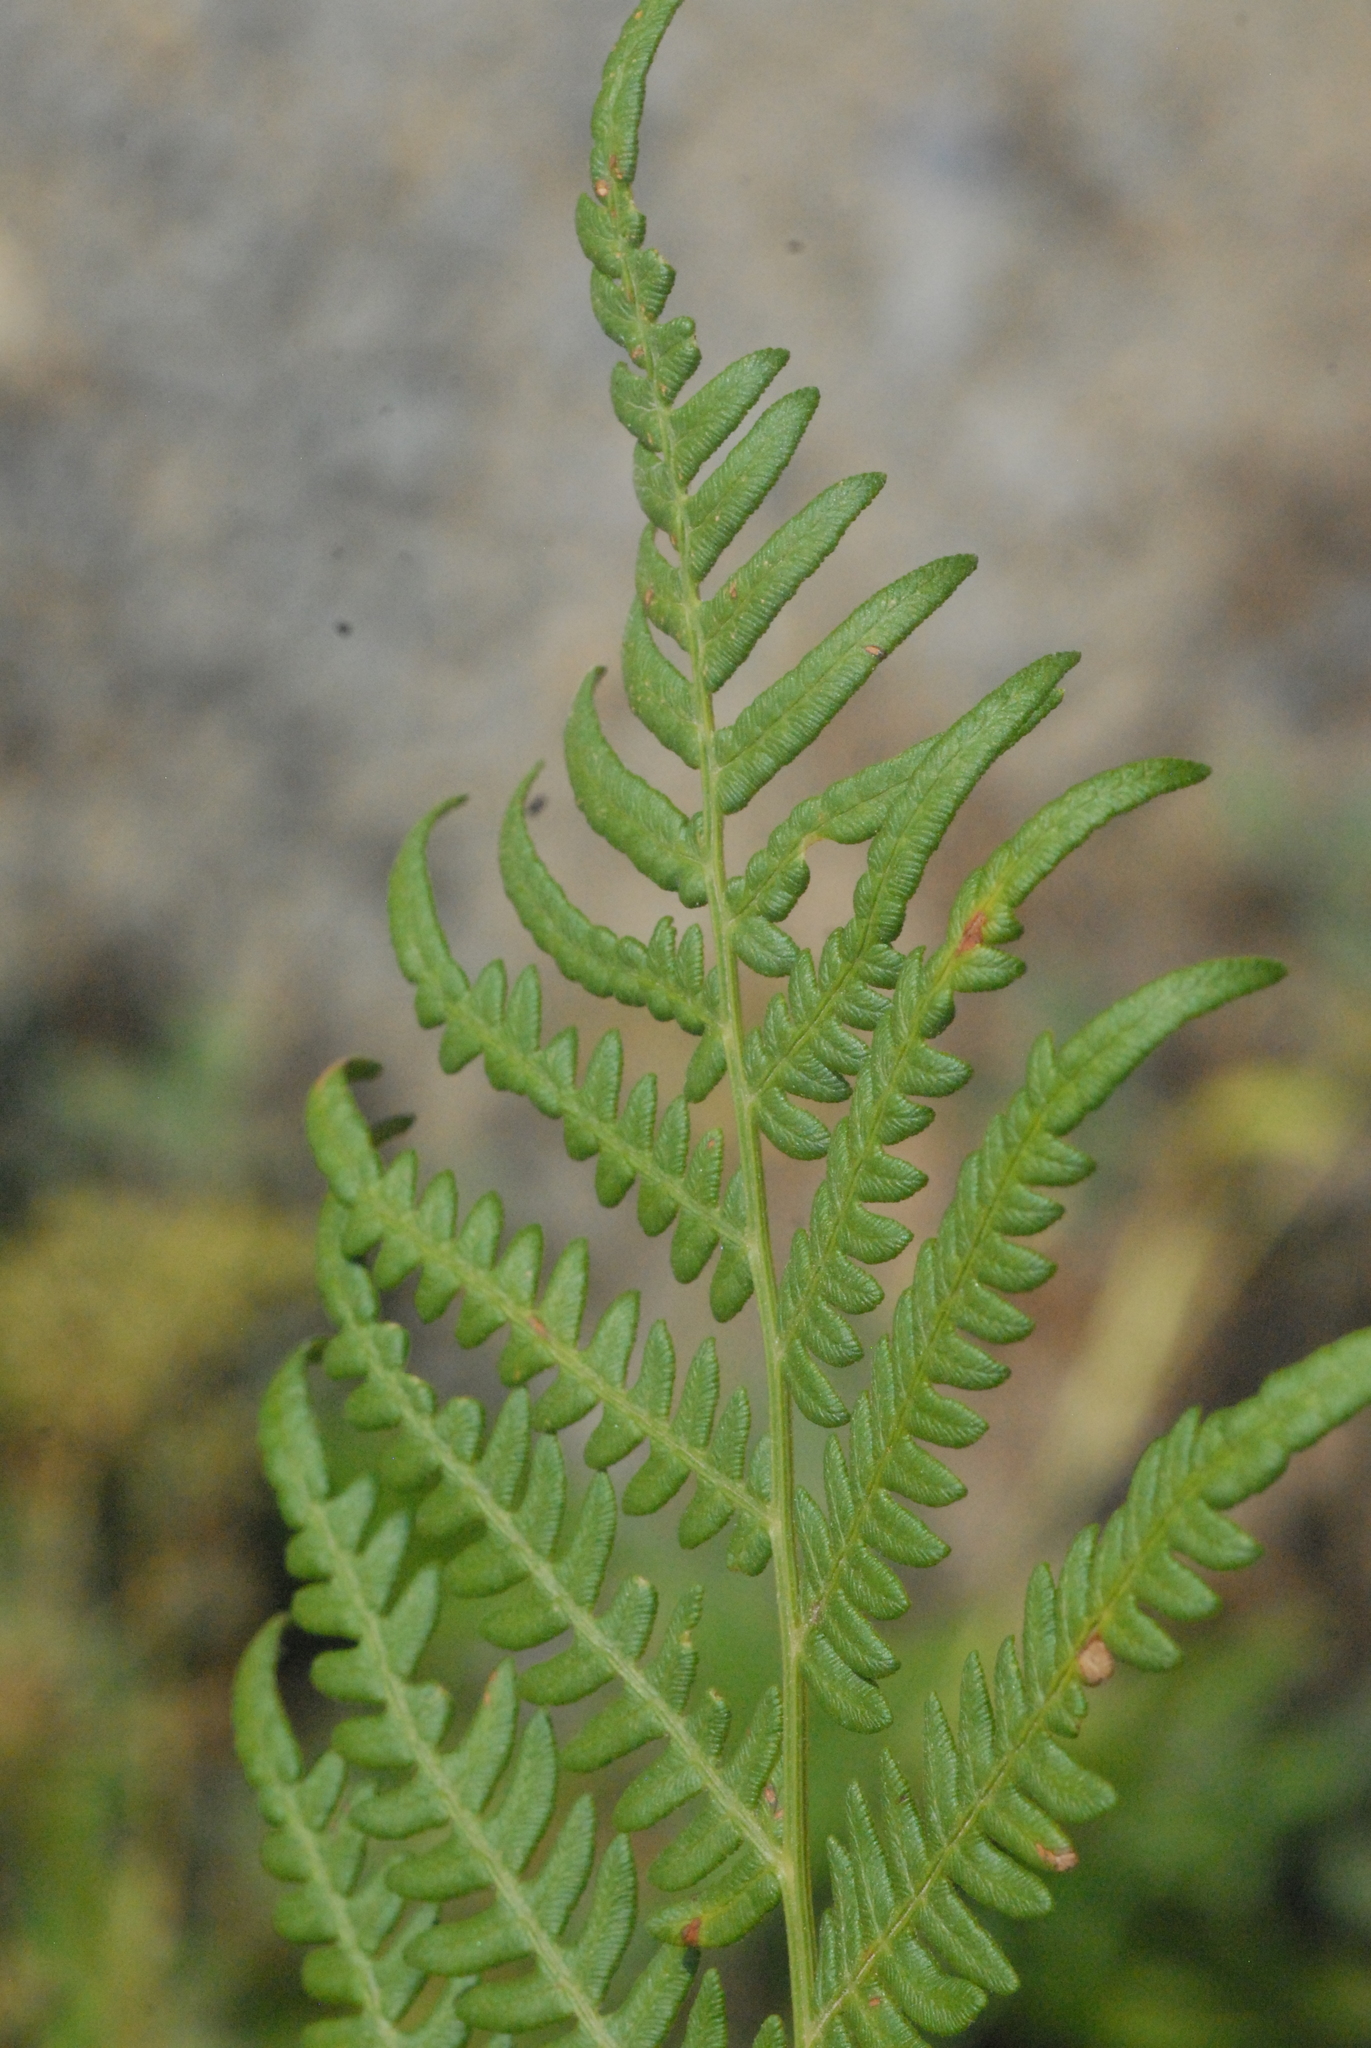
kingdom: Plantae
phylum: Tracheophyta
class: Polypodiopsida
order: Polypodiales
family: Dennstaedtiaceae
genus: Pteridium
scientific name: Pteridium aquilinum
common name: Bracken
